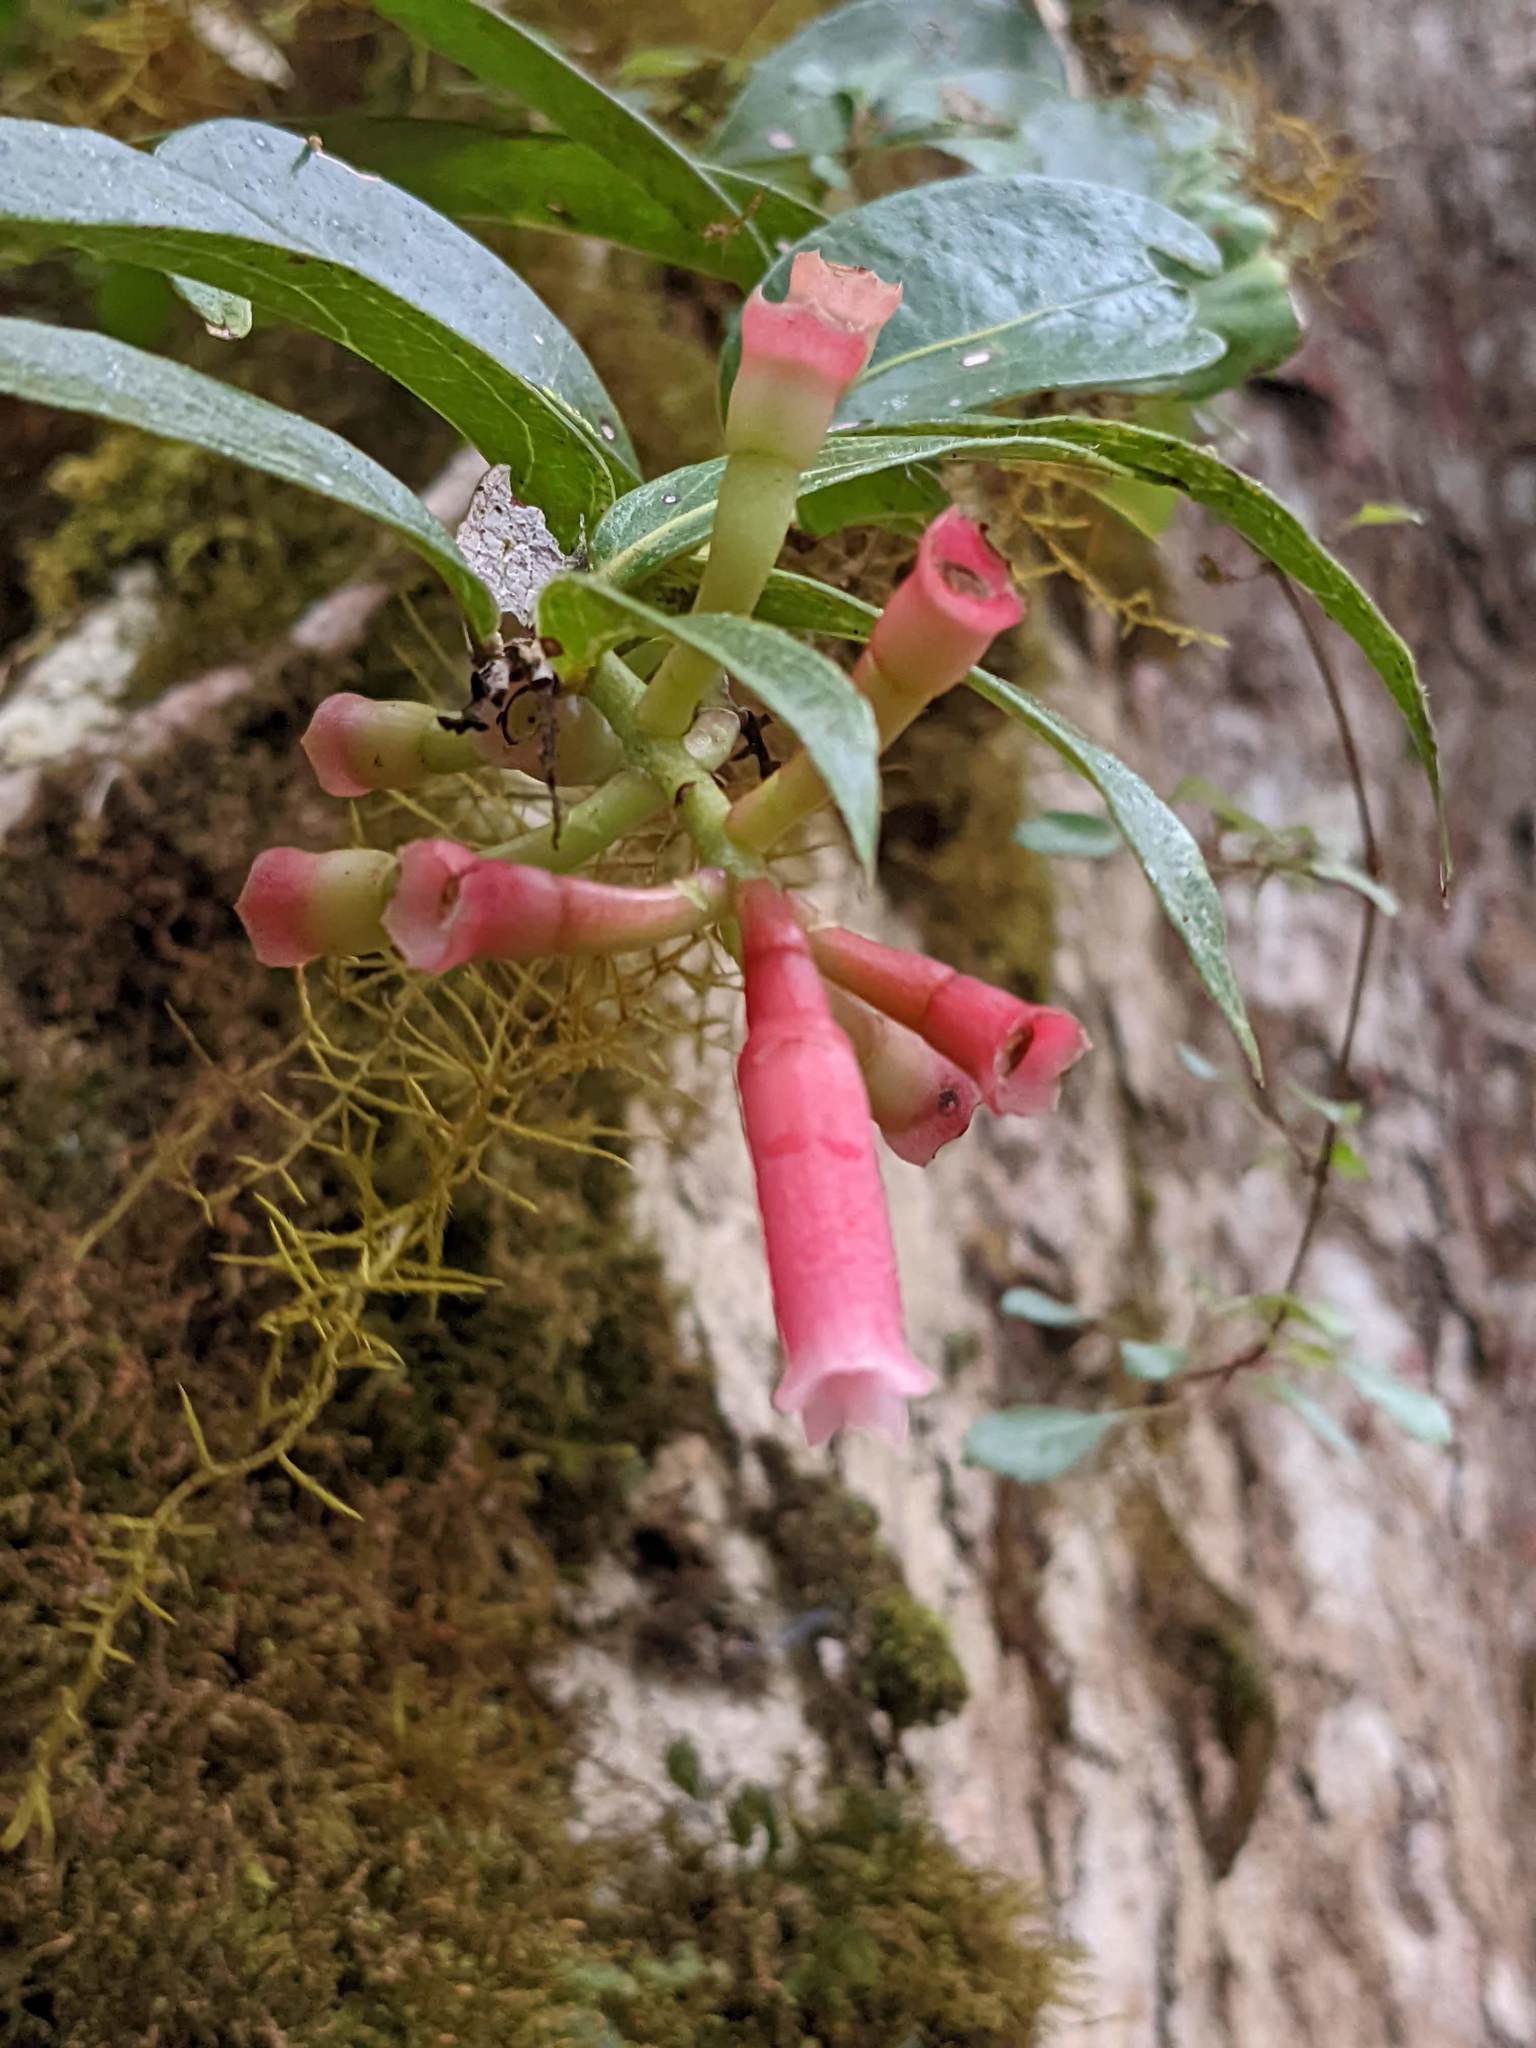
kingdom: Plantae
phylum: Tracheophyta
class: Magnoliopsida
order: Ericales
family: Ericaceae
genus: Macleania
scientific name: Macleania rupestris
